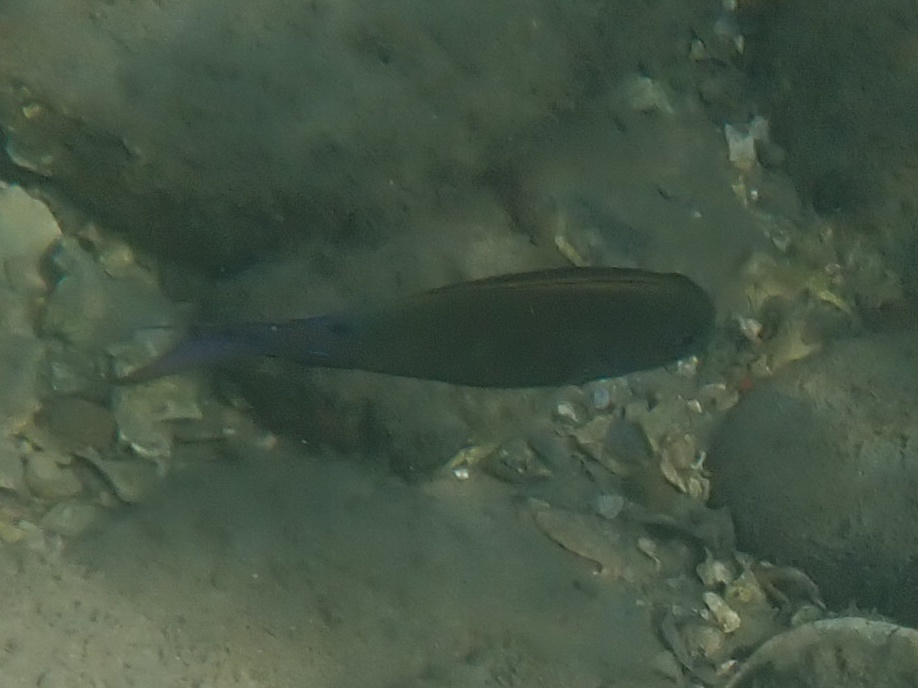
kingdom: Animalia
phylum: Chordata
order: Perciformes
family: Acanthuridae
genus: Acanthurus
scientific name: Acanthurus nigrofuscus
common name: Blackspot surgeonfish
